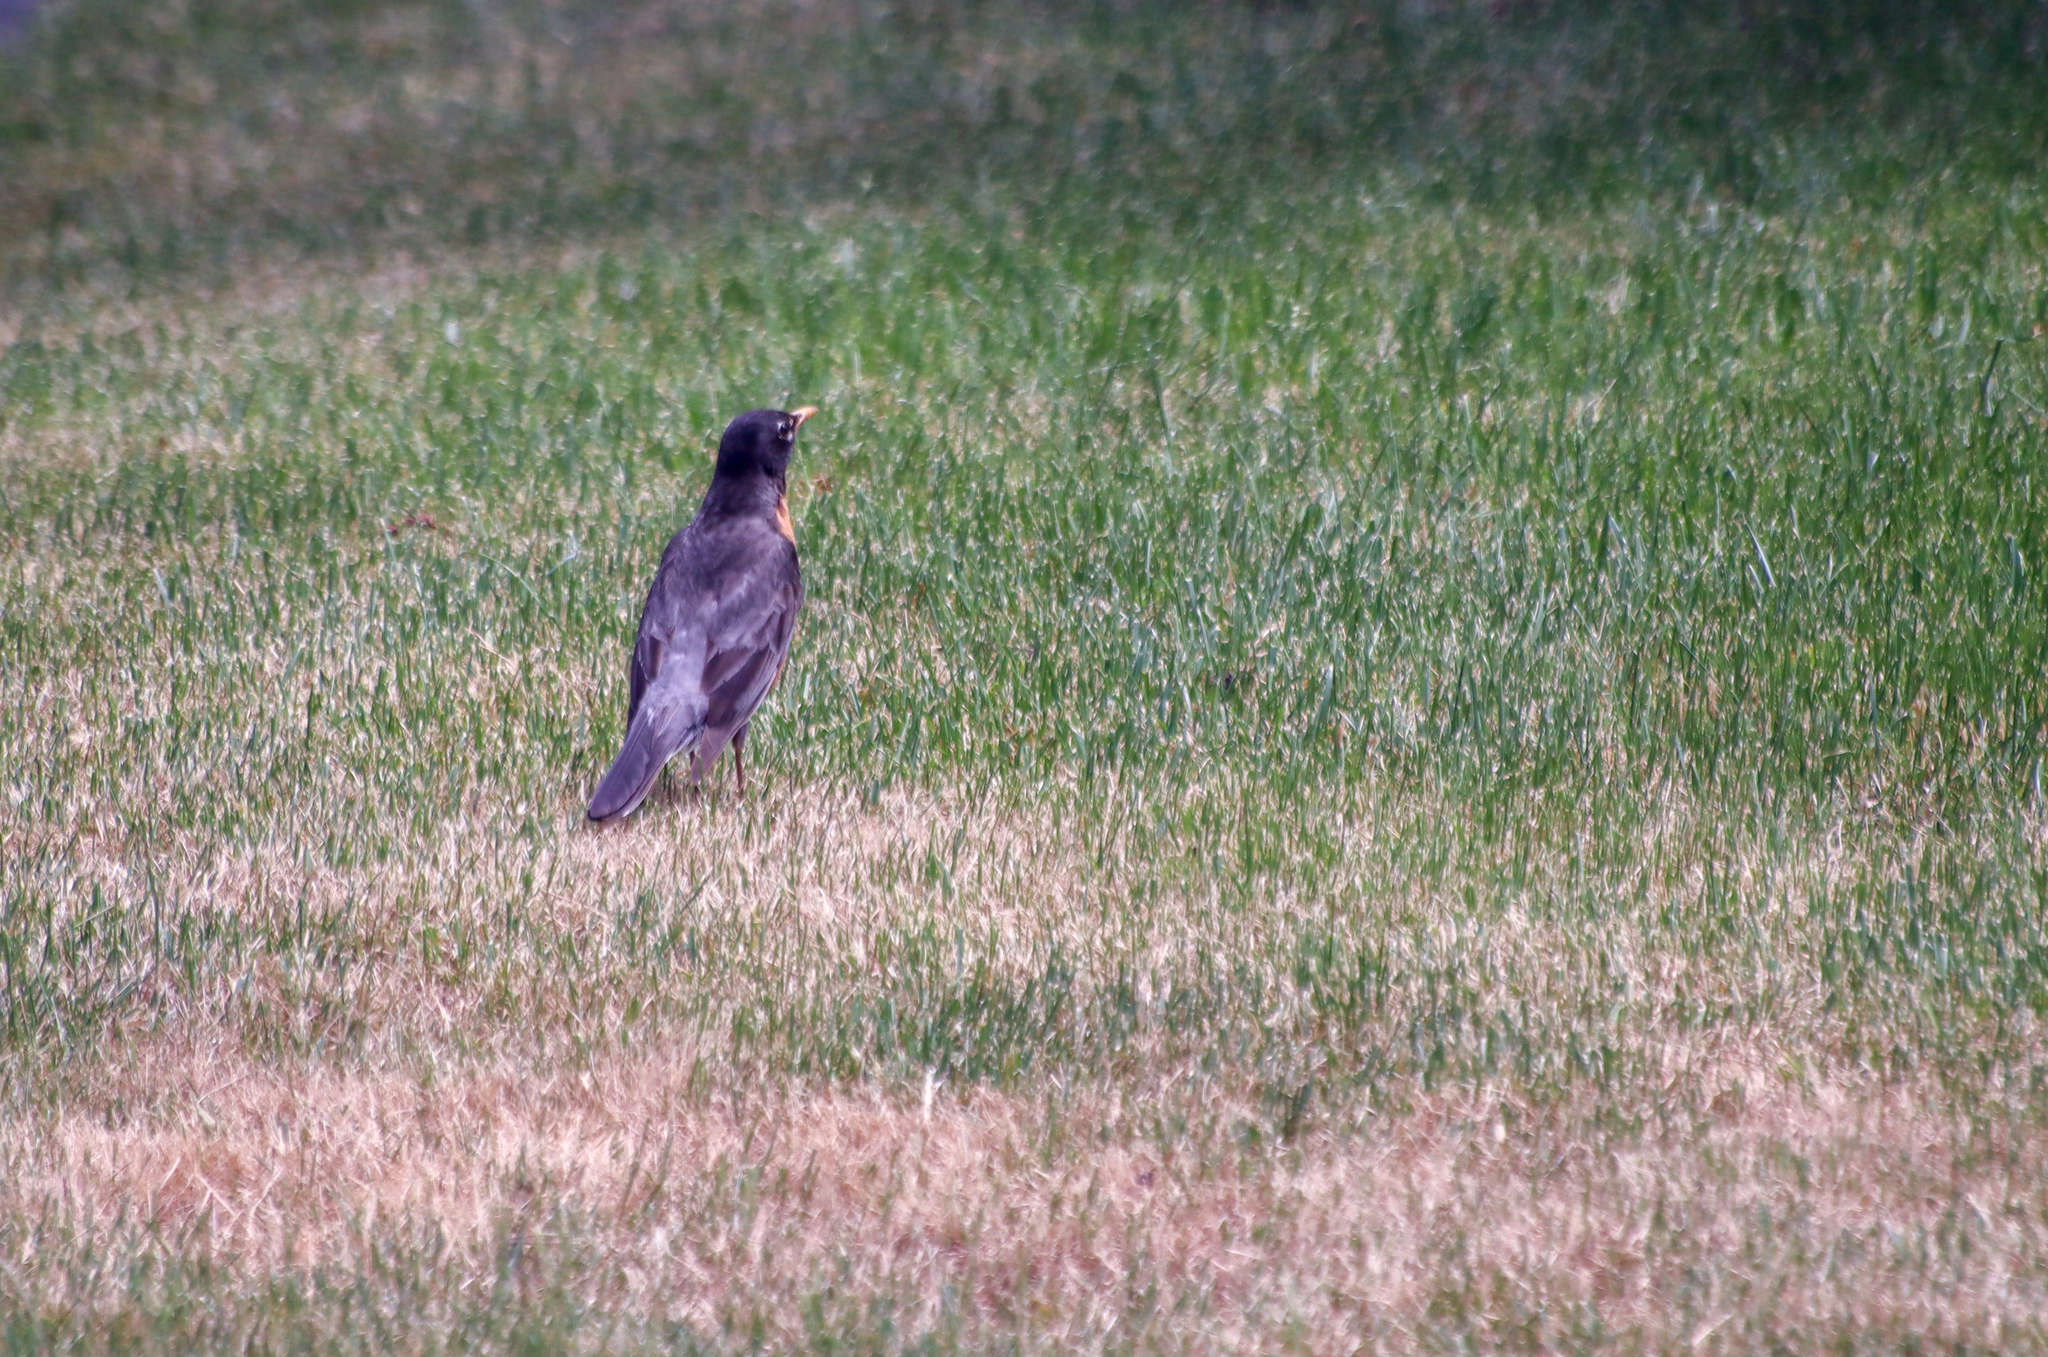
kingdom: Animalia
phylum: Chordata
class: Aves
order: Passeriformes
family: Turdidae
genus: Turdus
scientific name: Turdus migratorius
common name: American robin
